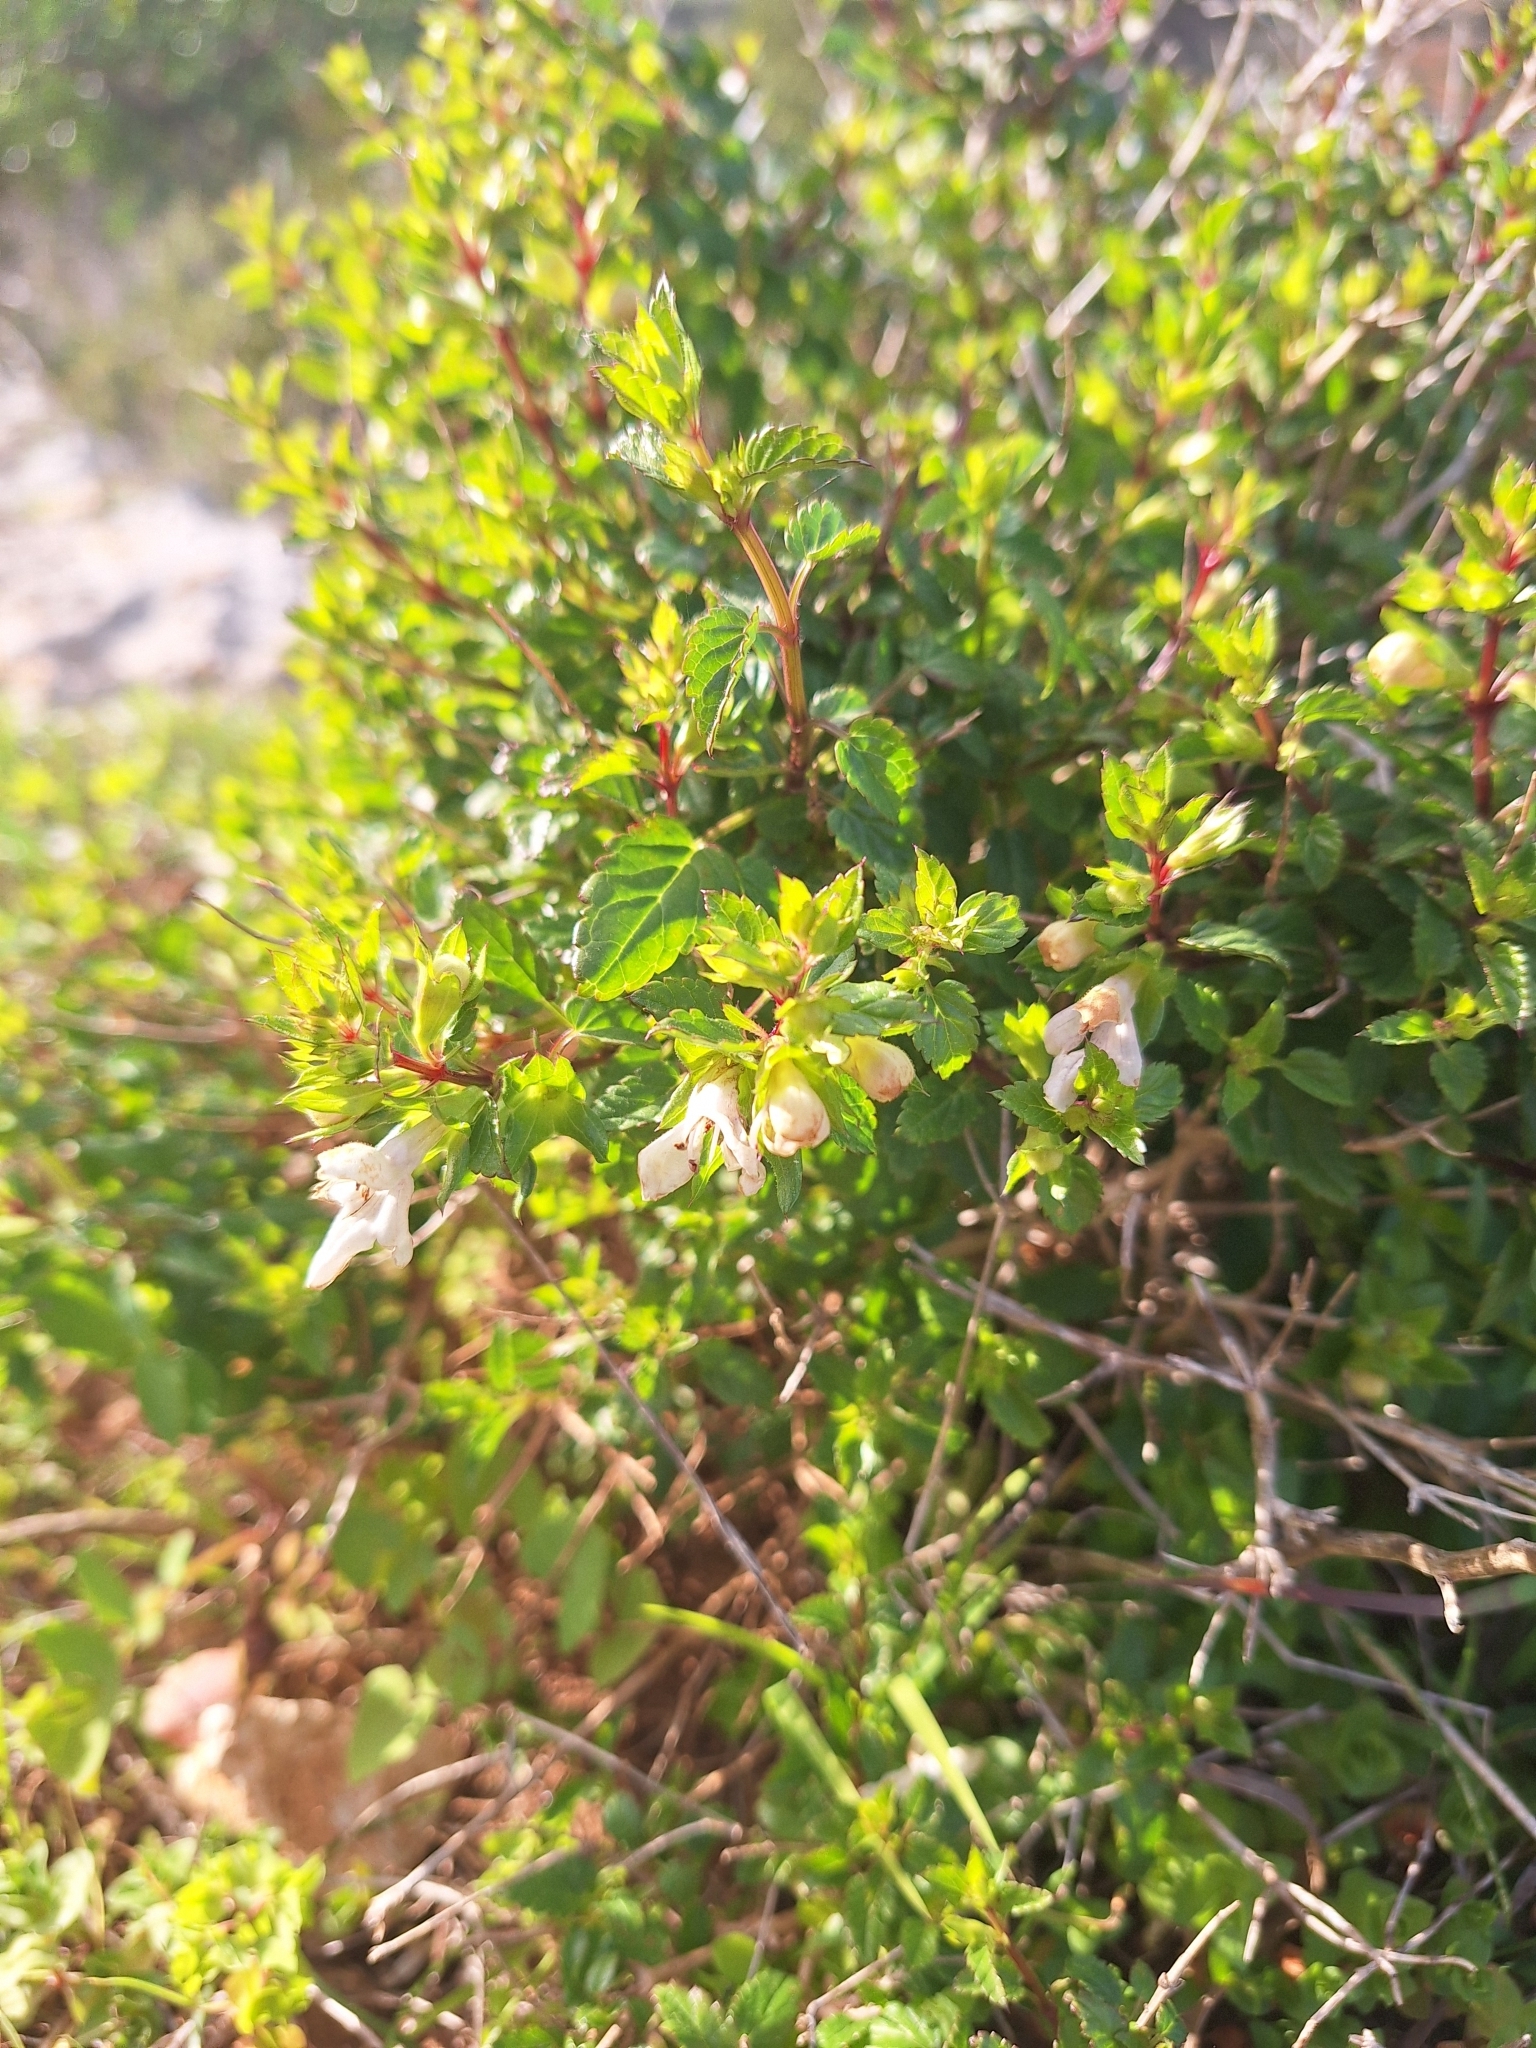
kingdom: Plantae
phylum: Tracheophyta
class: Magnoliopsida
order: Lamiales
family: Lamiaceae
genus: Prasium
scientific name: Prasium majus
